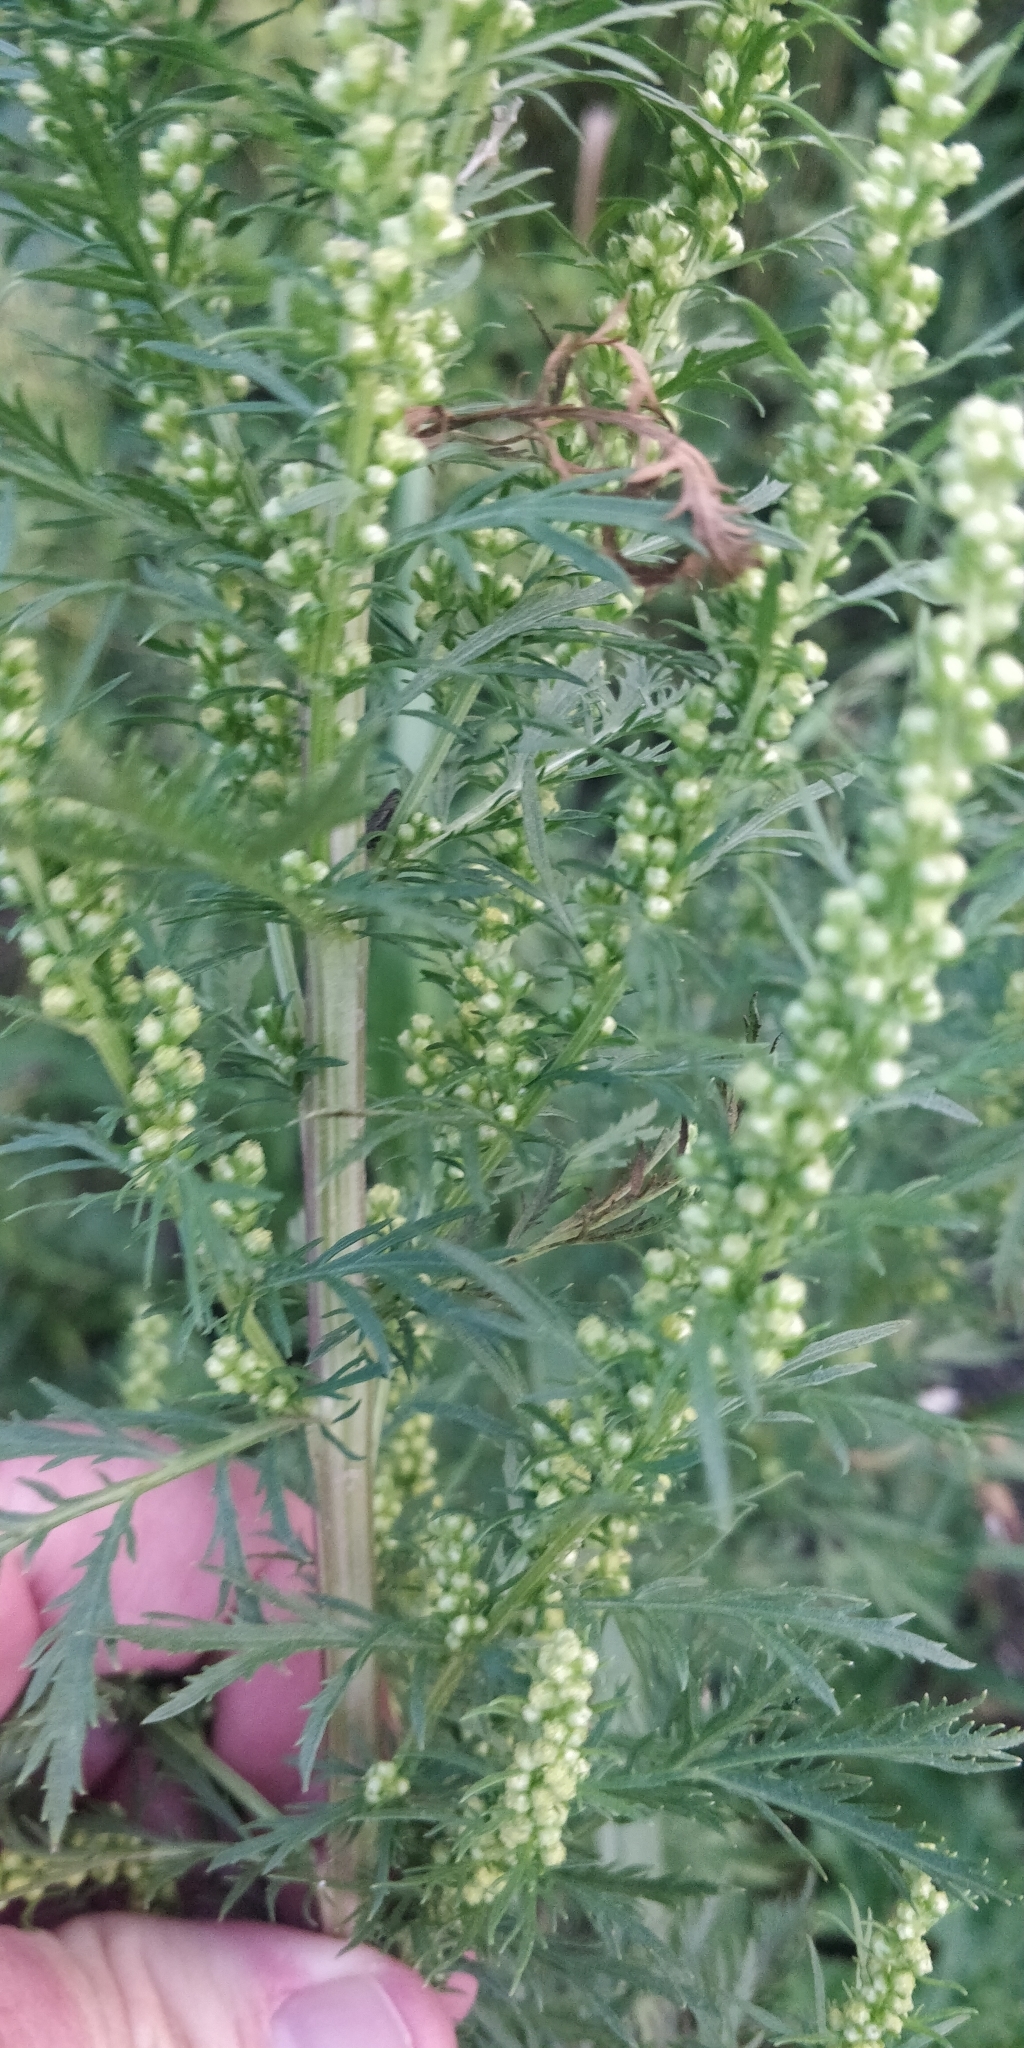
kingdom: Plantae
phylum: Tracheophyta
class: Magnoliopsida
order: Asterales
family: Asteraceae
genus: Artemisia
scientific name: Artemisia biennis
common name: Biennial wormwood
